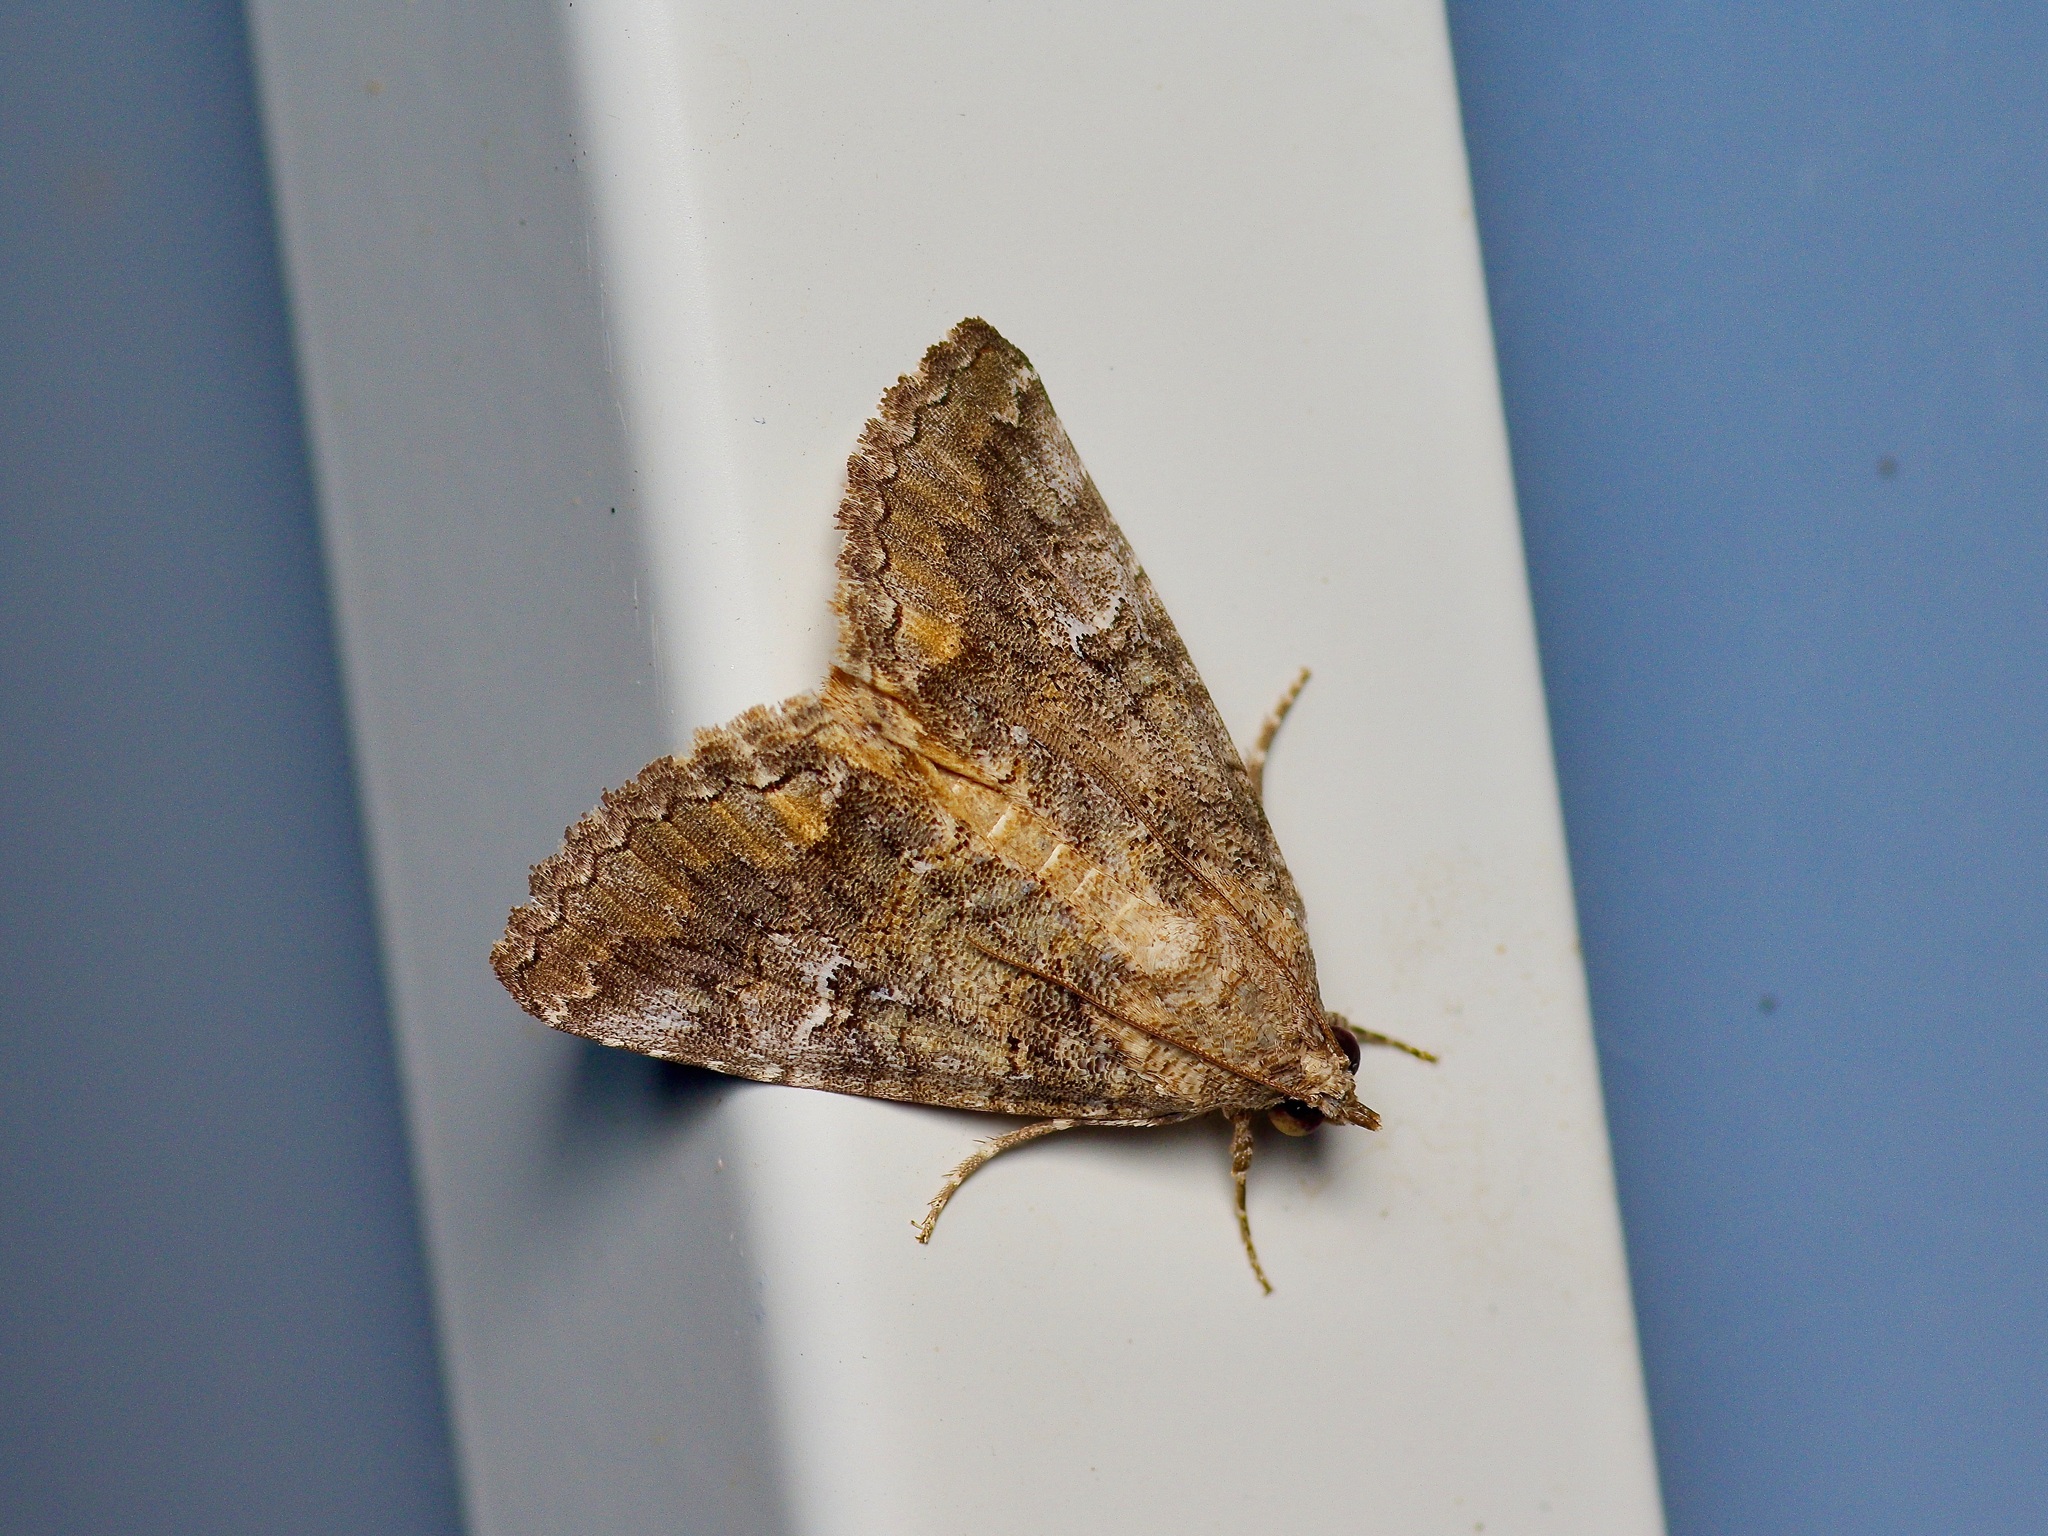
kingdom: Animalia
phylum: Arthropoda
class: Insecta
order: Lepidoptera
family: Erebidae
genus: Eubolina
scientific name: Eubolina impartialis
